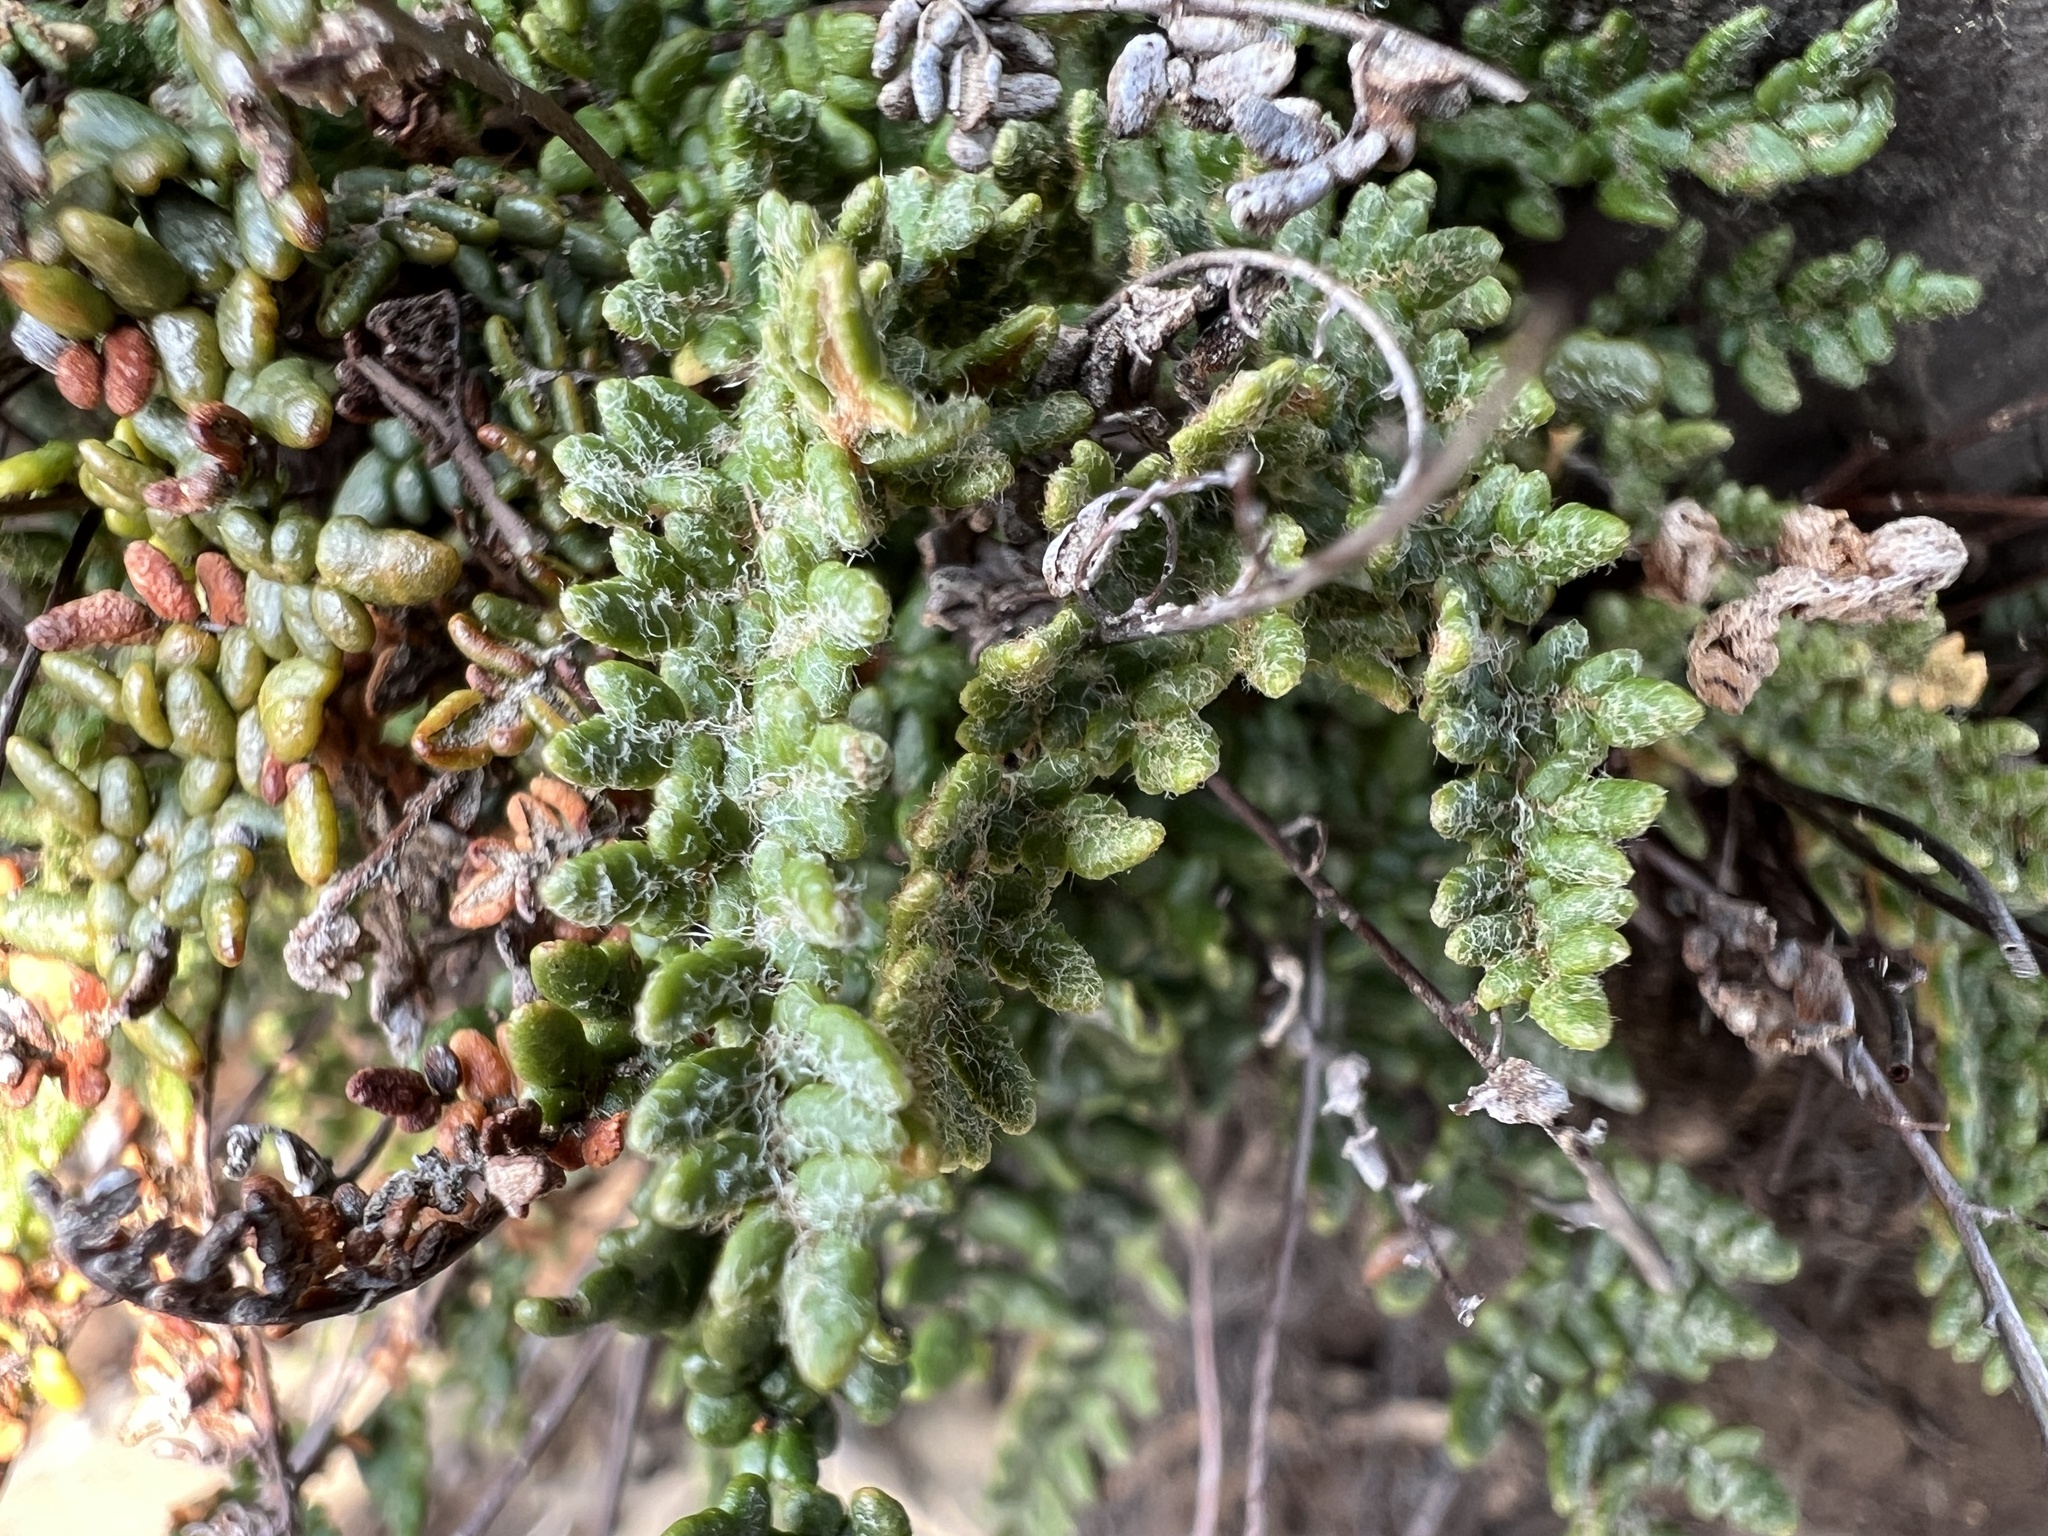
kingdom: Plantae
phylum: Tracheophyta
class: Polypodiopsida
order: Polypodiales
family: Pteridaceae
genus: Myriopteris
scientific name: Myriopteris gracillima
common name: Lace fern
